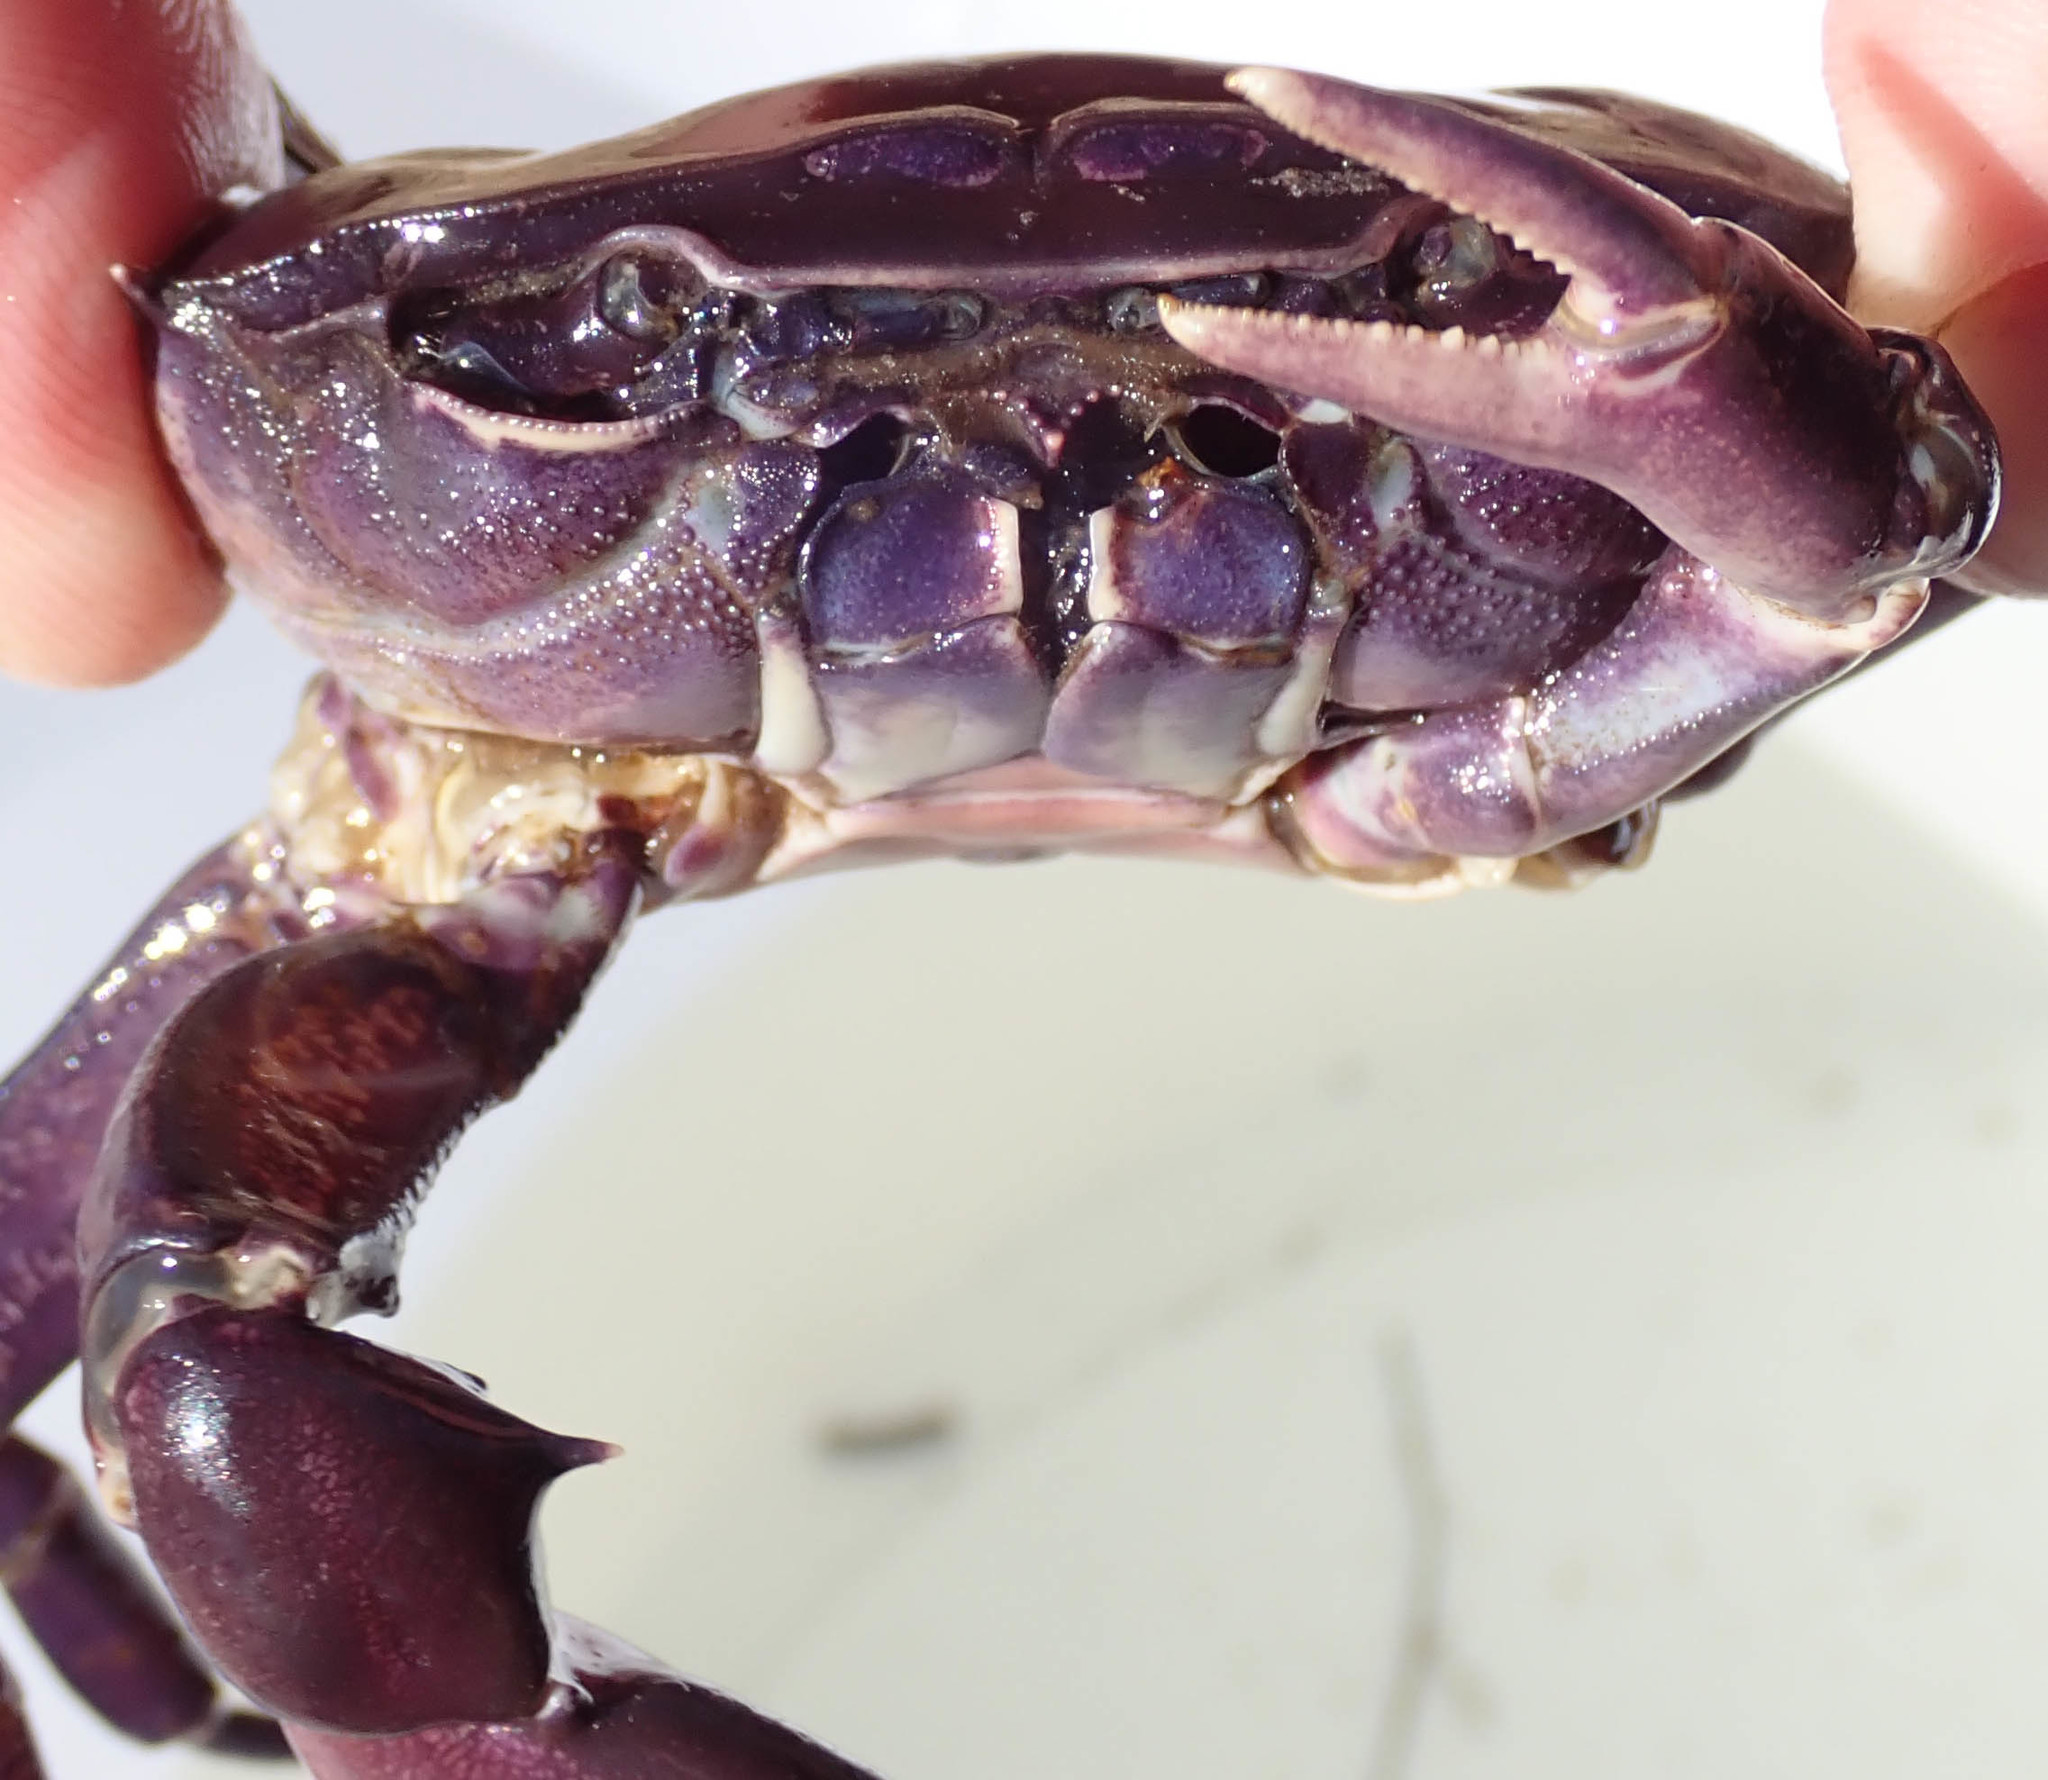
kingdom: Animalia
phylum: Arthropoda
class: Malacostraca
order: Decapoda
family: Potamonautidae
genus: Potamonautes
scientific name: Potamonautes bayonianus
